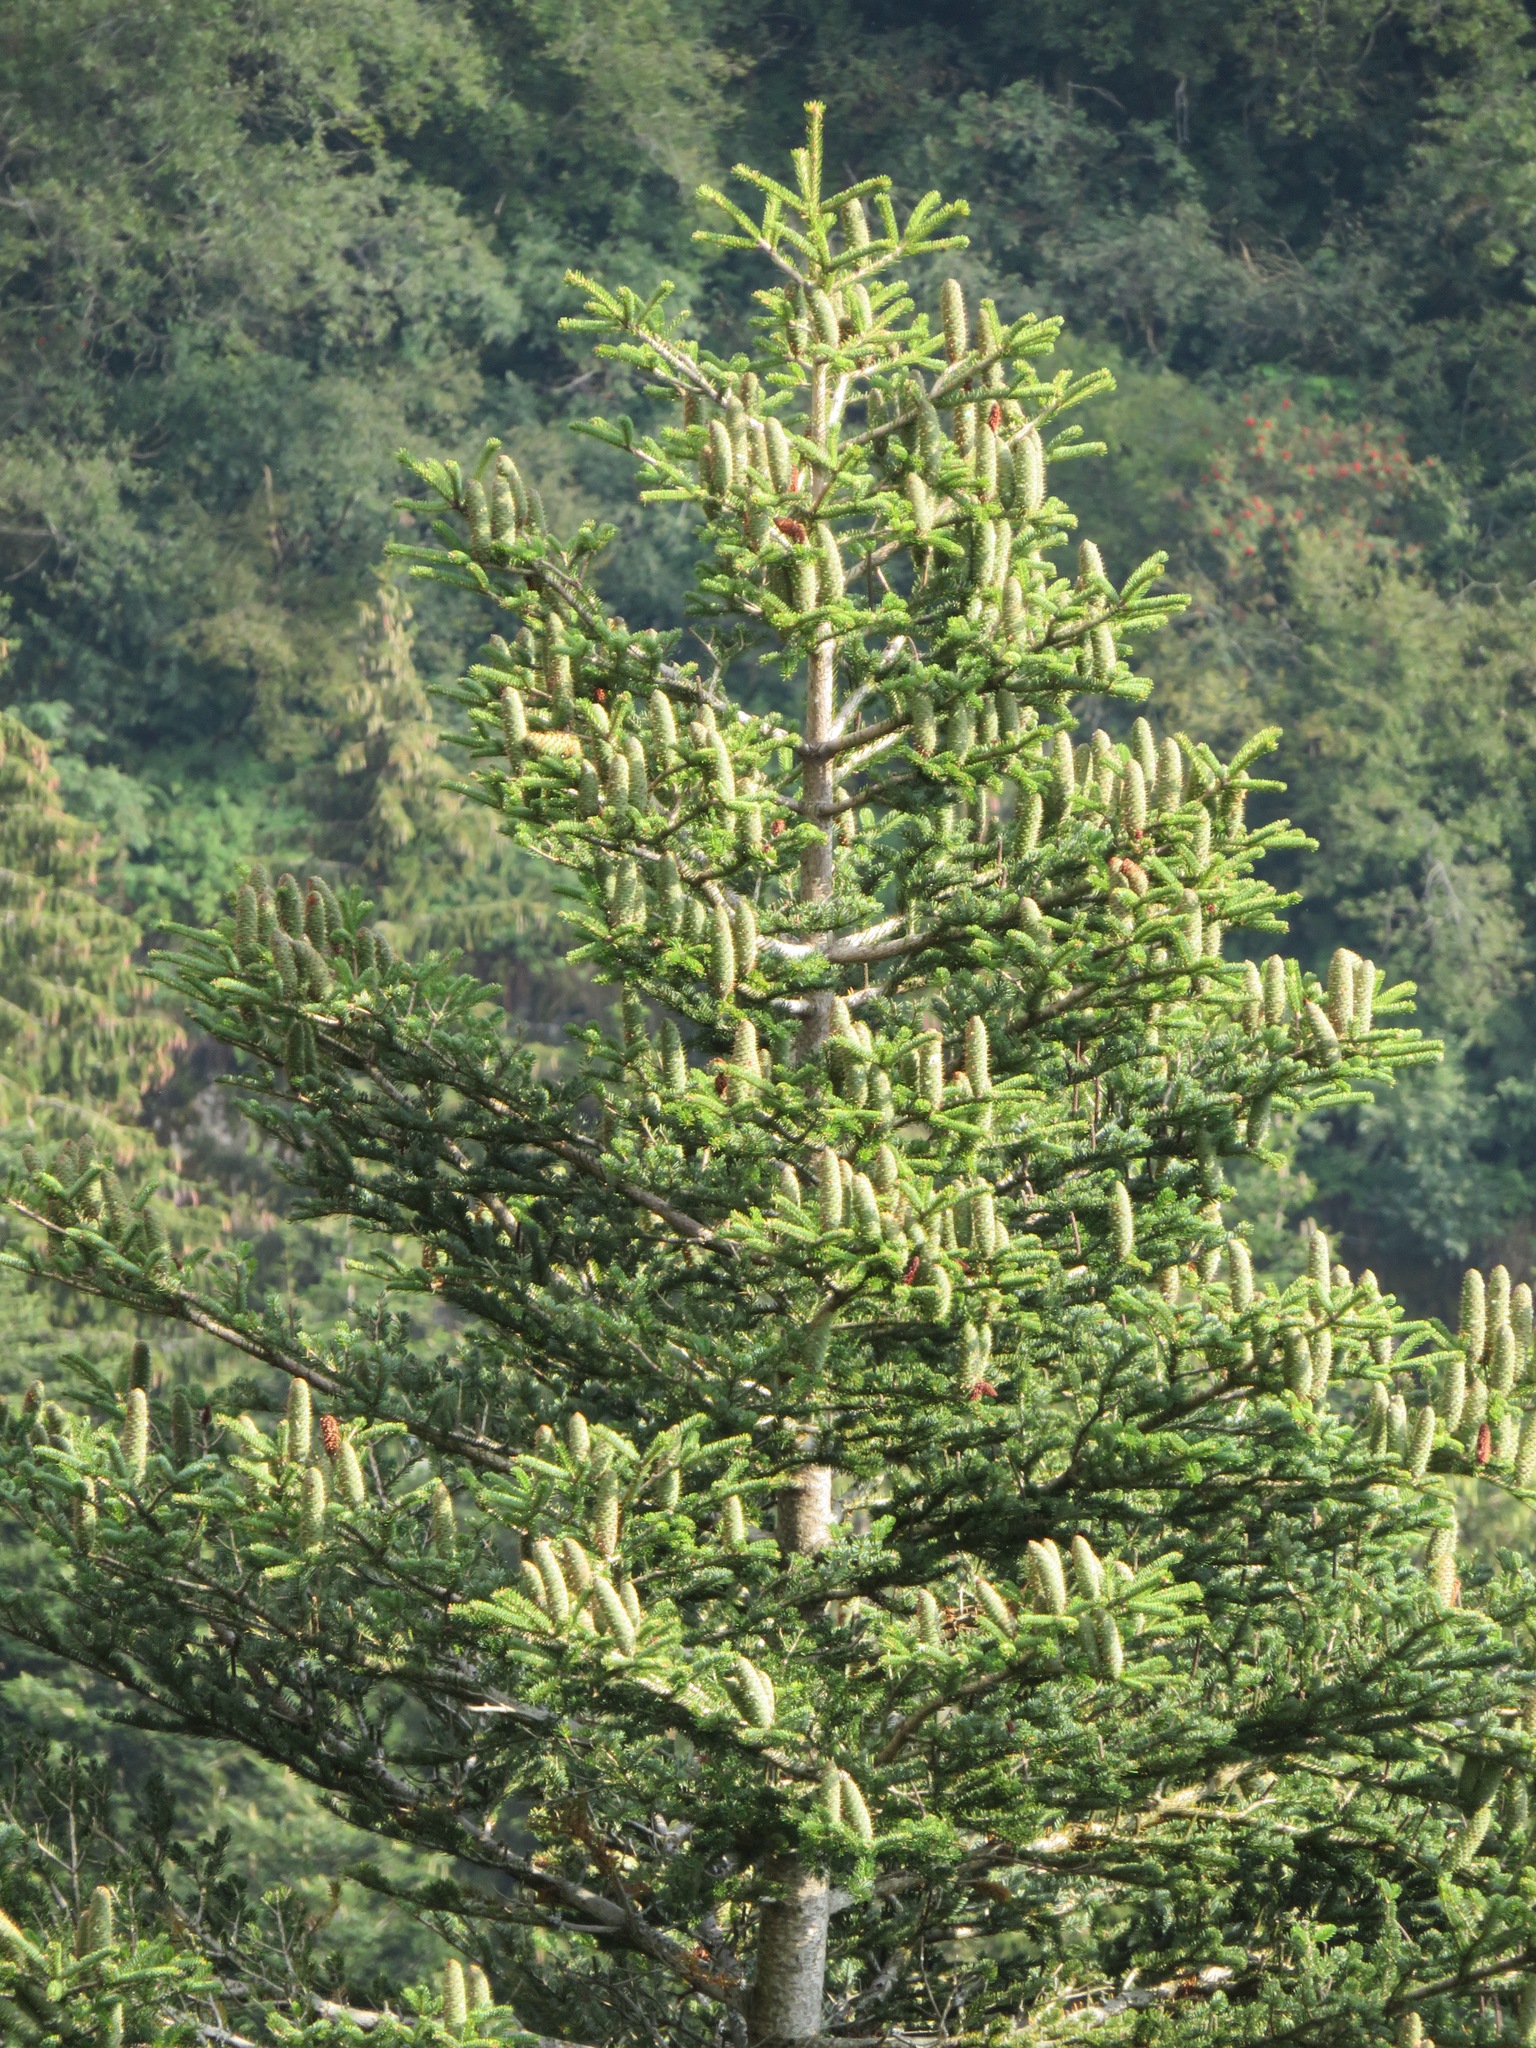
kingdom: Plantae
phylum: Tracheophyta
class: Pinopsida
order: Pinales
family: Pinaceae
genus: Abies
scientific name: Abies alba
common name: Silver fir
